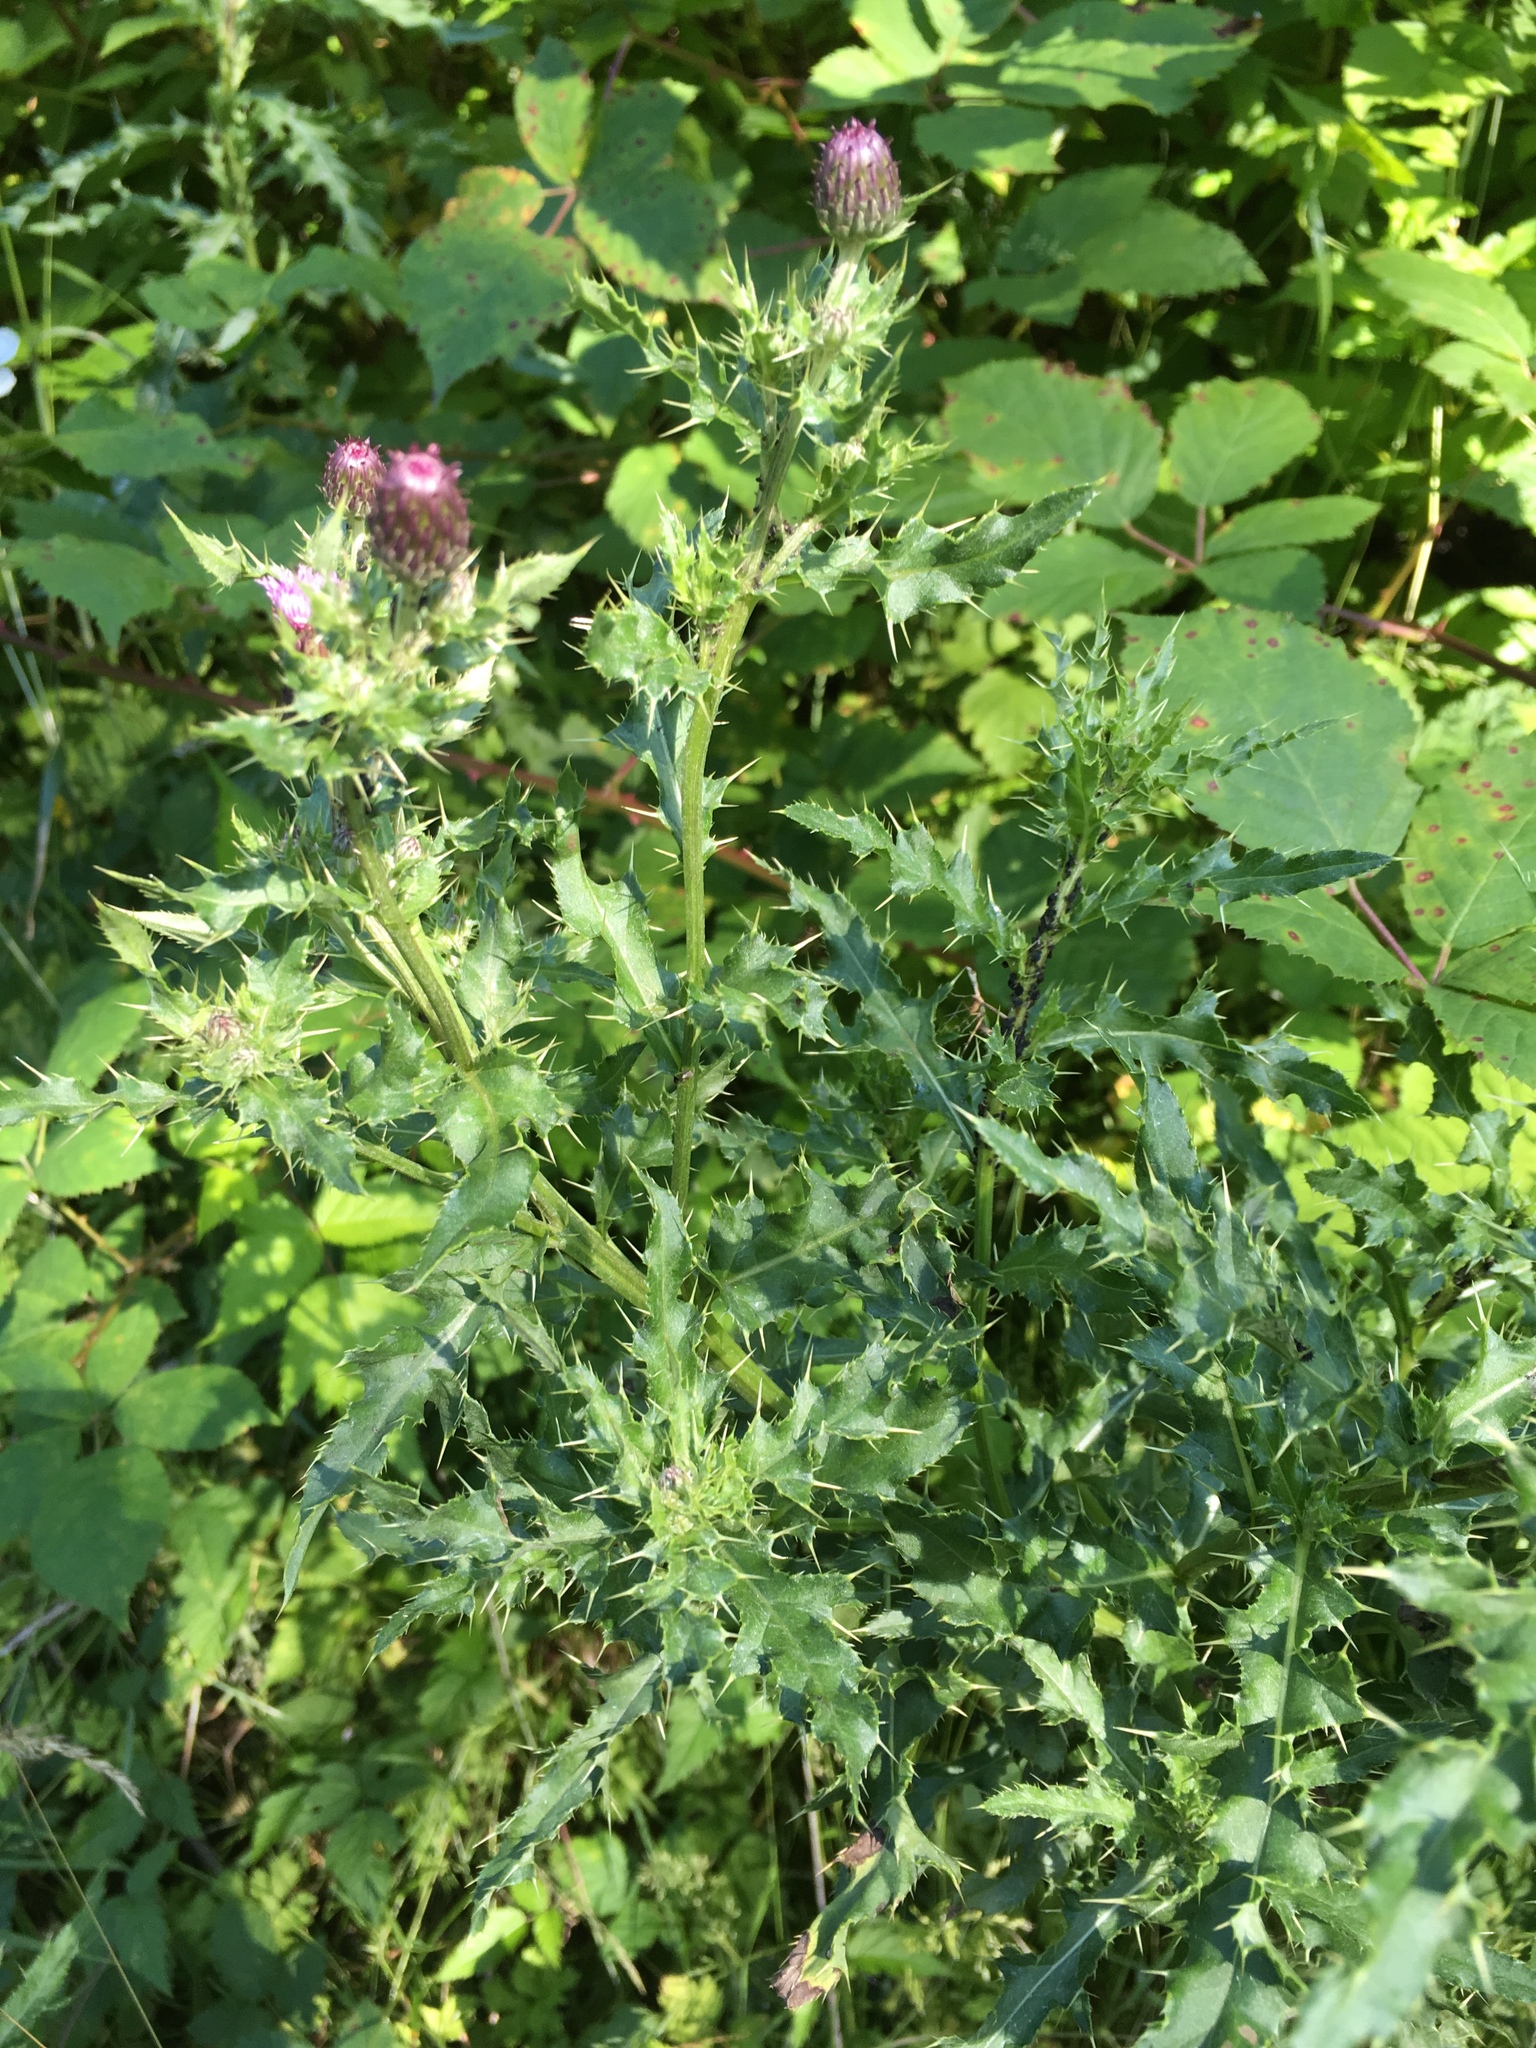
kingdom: Plantae
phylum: Tracheophyta
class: Magnoliopsida
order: Asterales
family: Asteraceae
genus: Cirsium
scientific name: Cirsium arvense
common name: Creeping thistle
